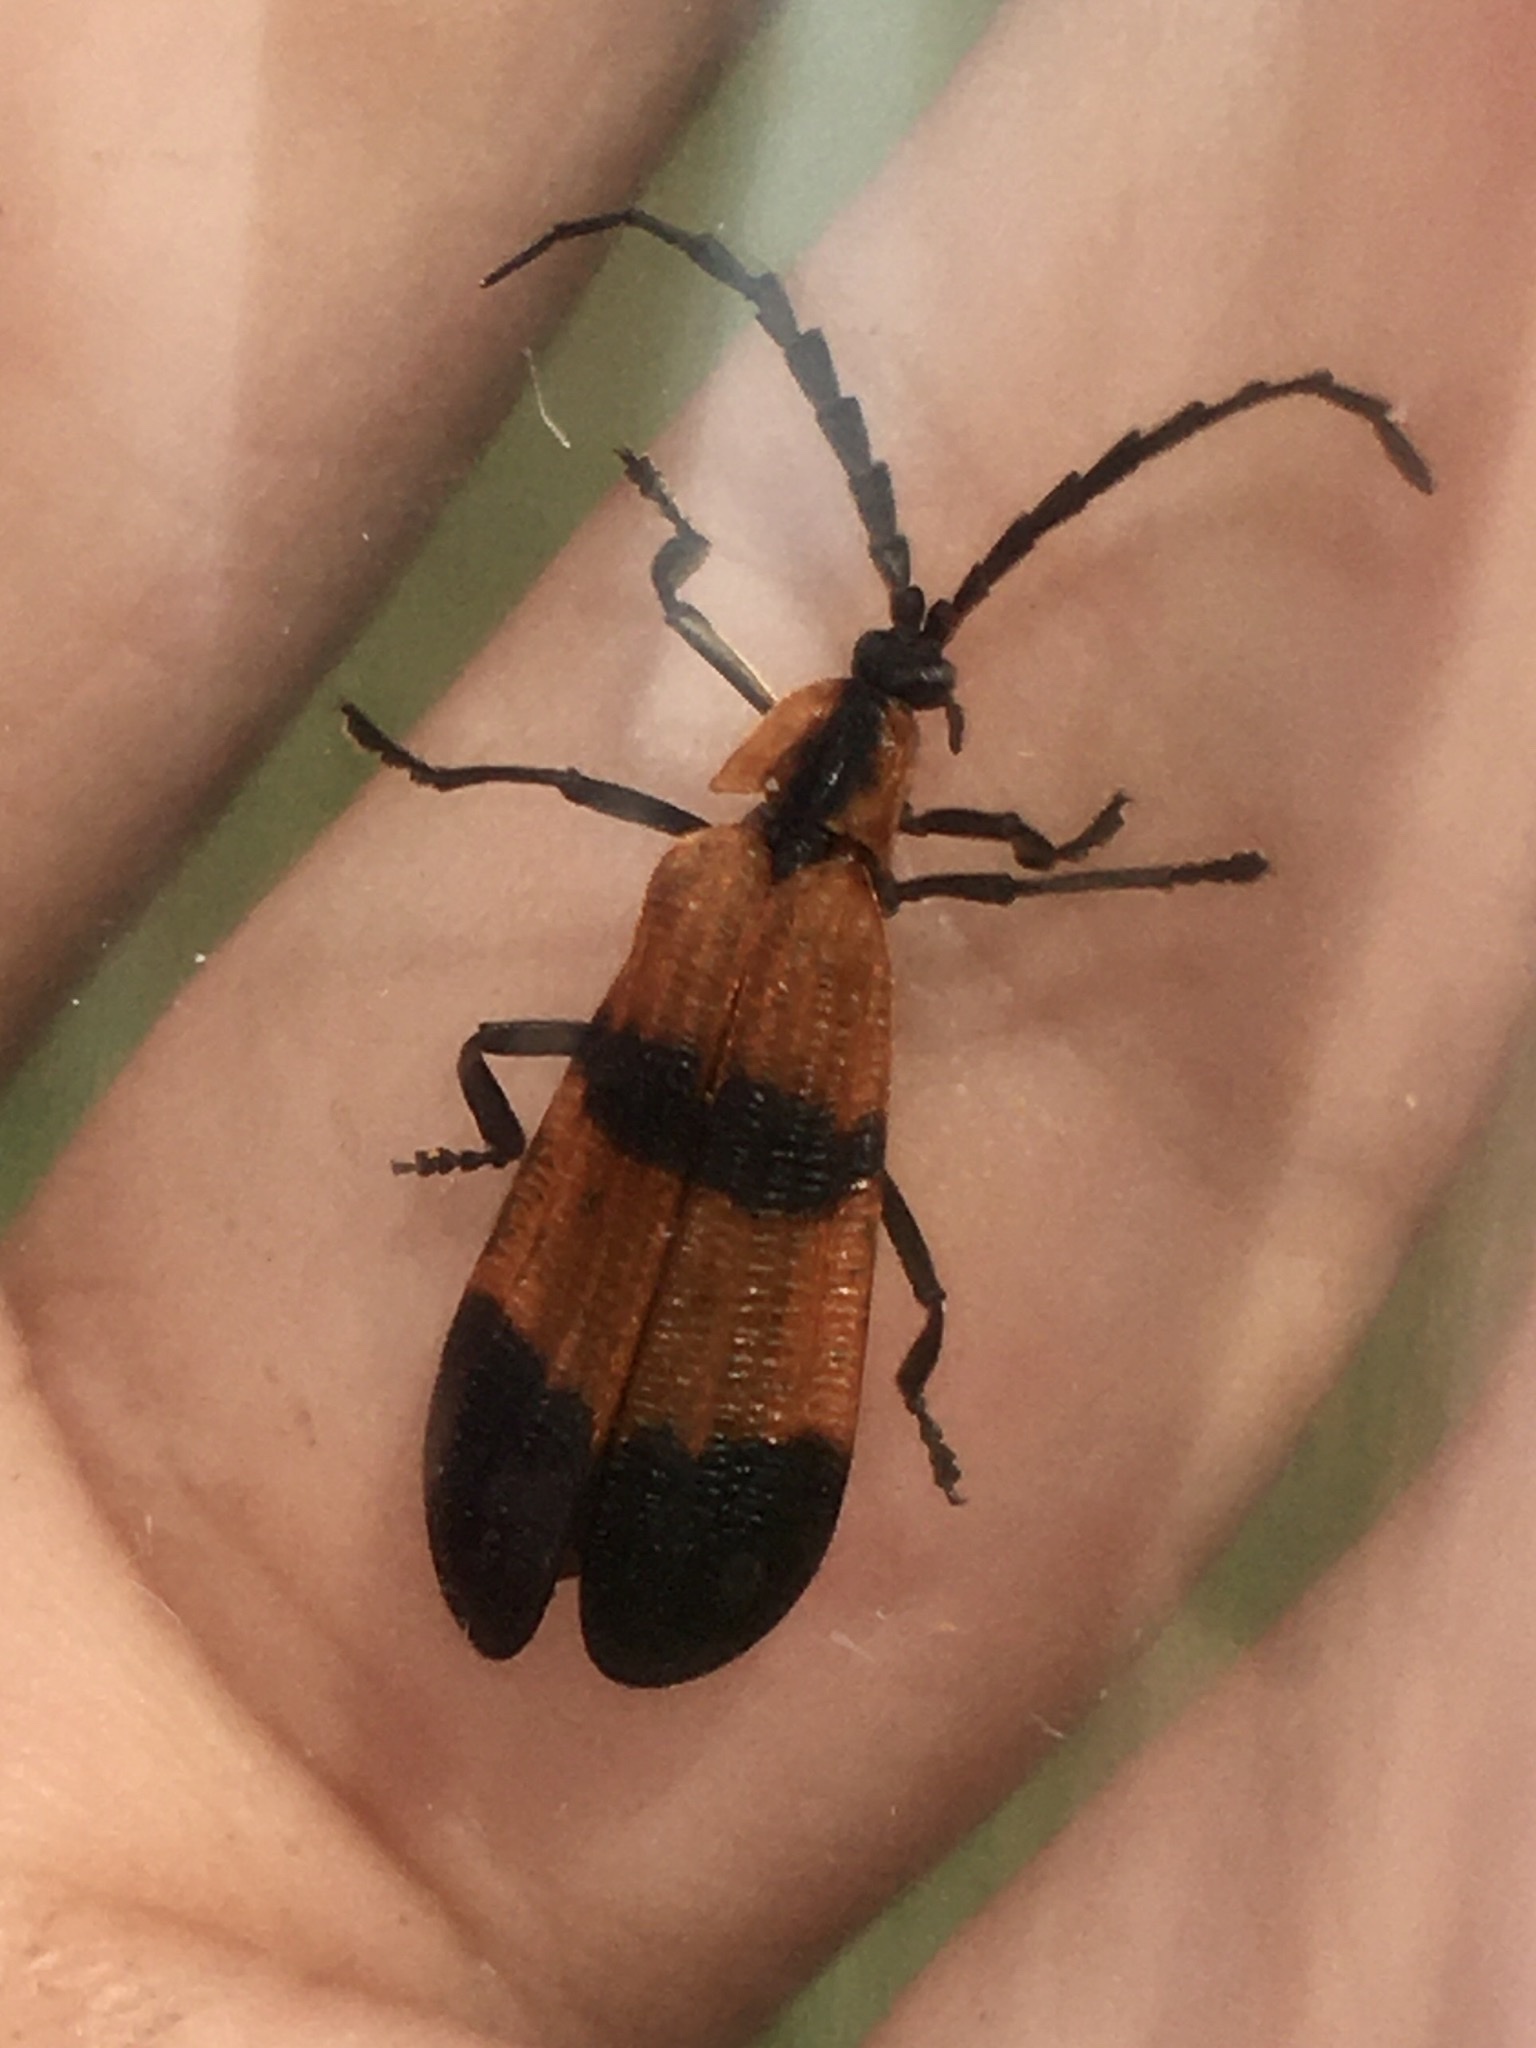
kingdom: Animalia
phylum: Arthropoda
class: Insecta
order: Coleoptera
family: Lycidae
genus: Calopteron
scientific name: Calopteron reticulatum
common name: Banded net-winged beetle
